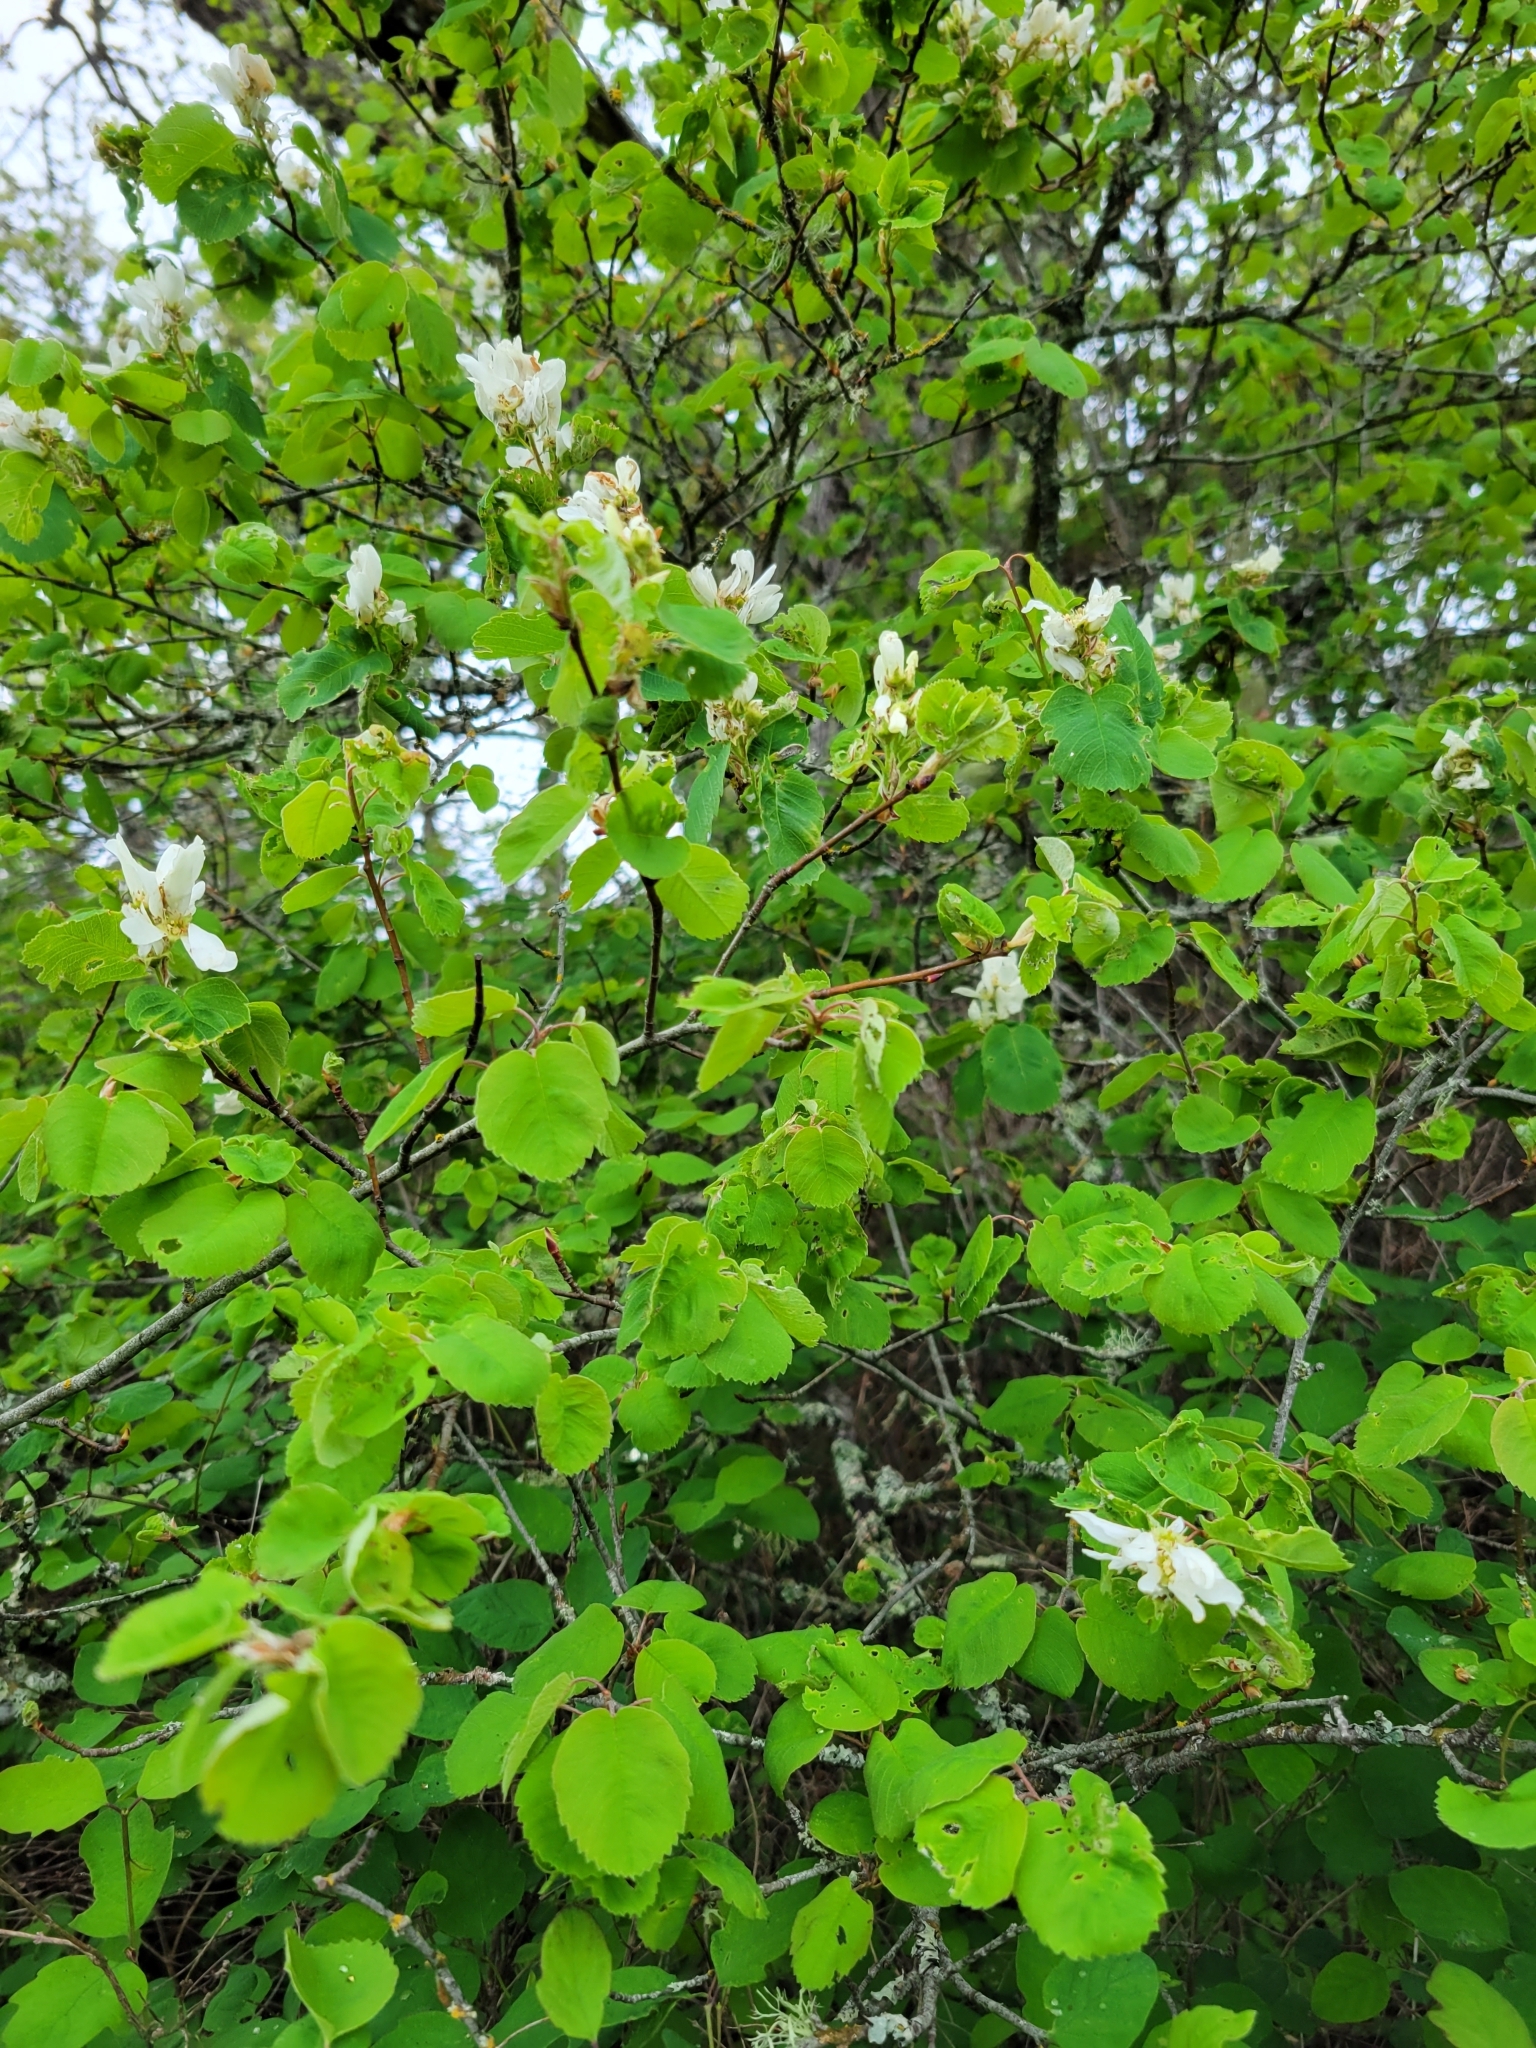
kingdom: Plantae
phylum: Tracheophyta
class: Magnoliopsida
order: Rosales
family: Rosaceae
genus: Amelanchier
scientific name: Amelanchier alnifolia
